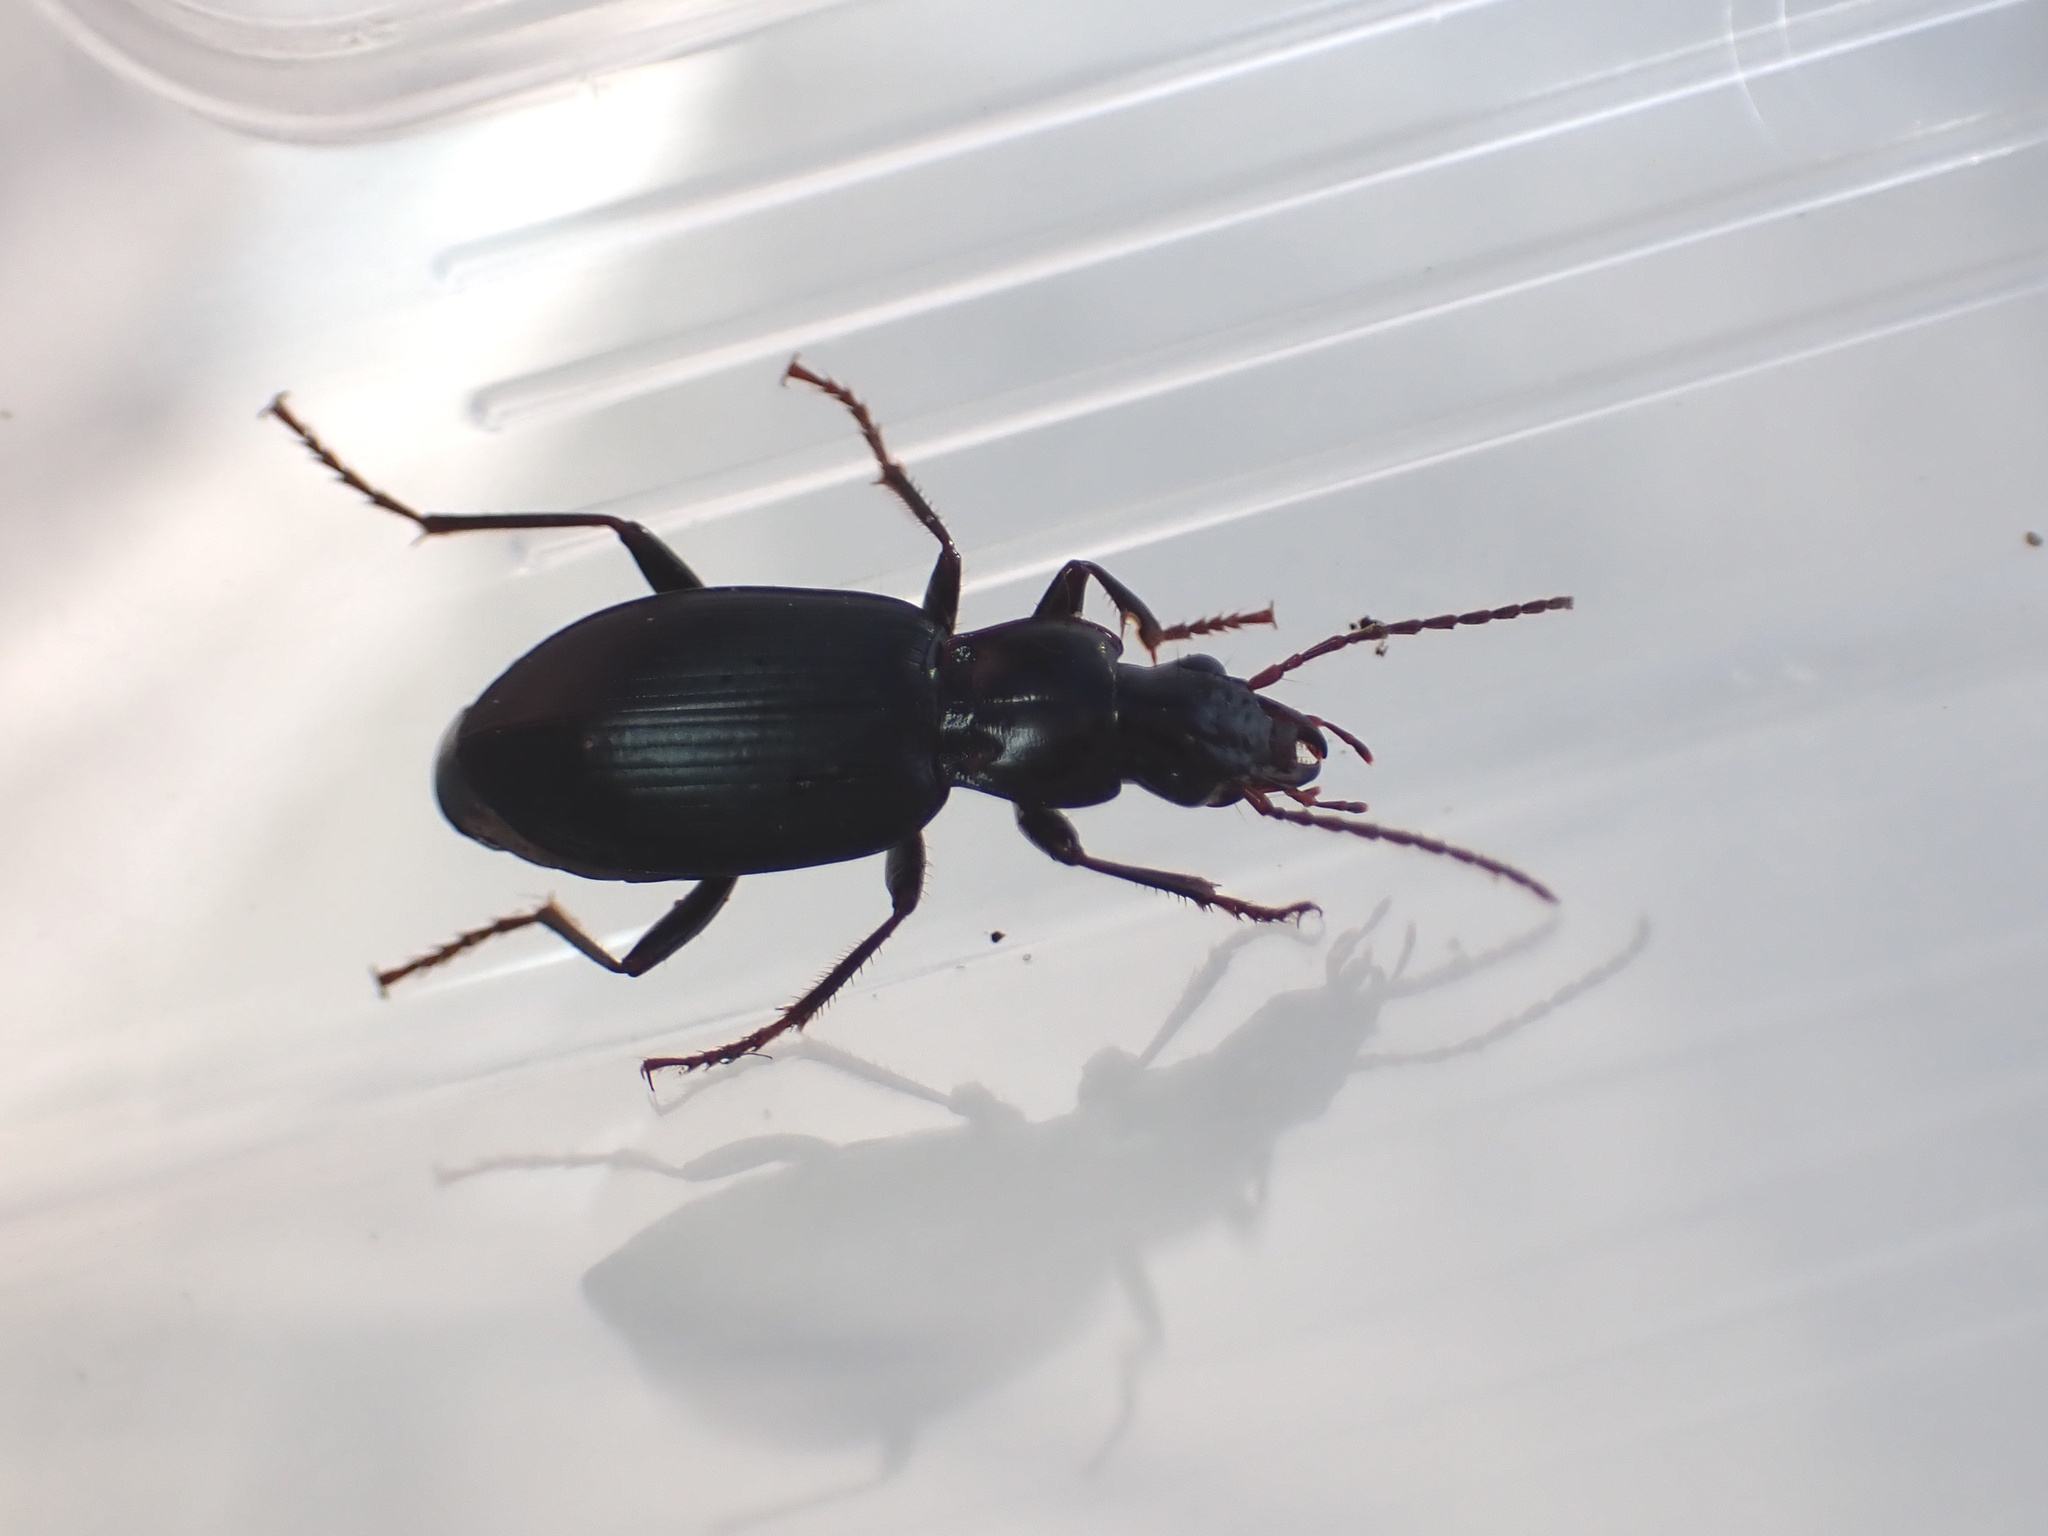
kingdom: Animalia
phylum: Arthropoda
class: Insecta
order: Coleoptera
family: Carabidae
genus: Laemostenus
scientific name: Laemostenus complanatus
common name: Cosmopolitan ground beetle
